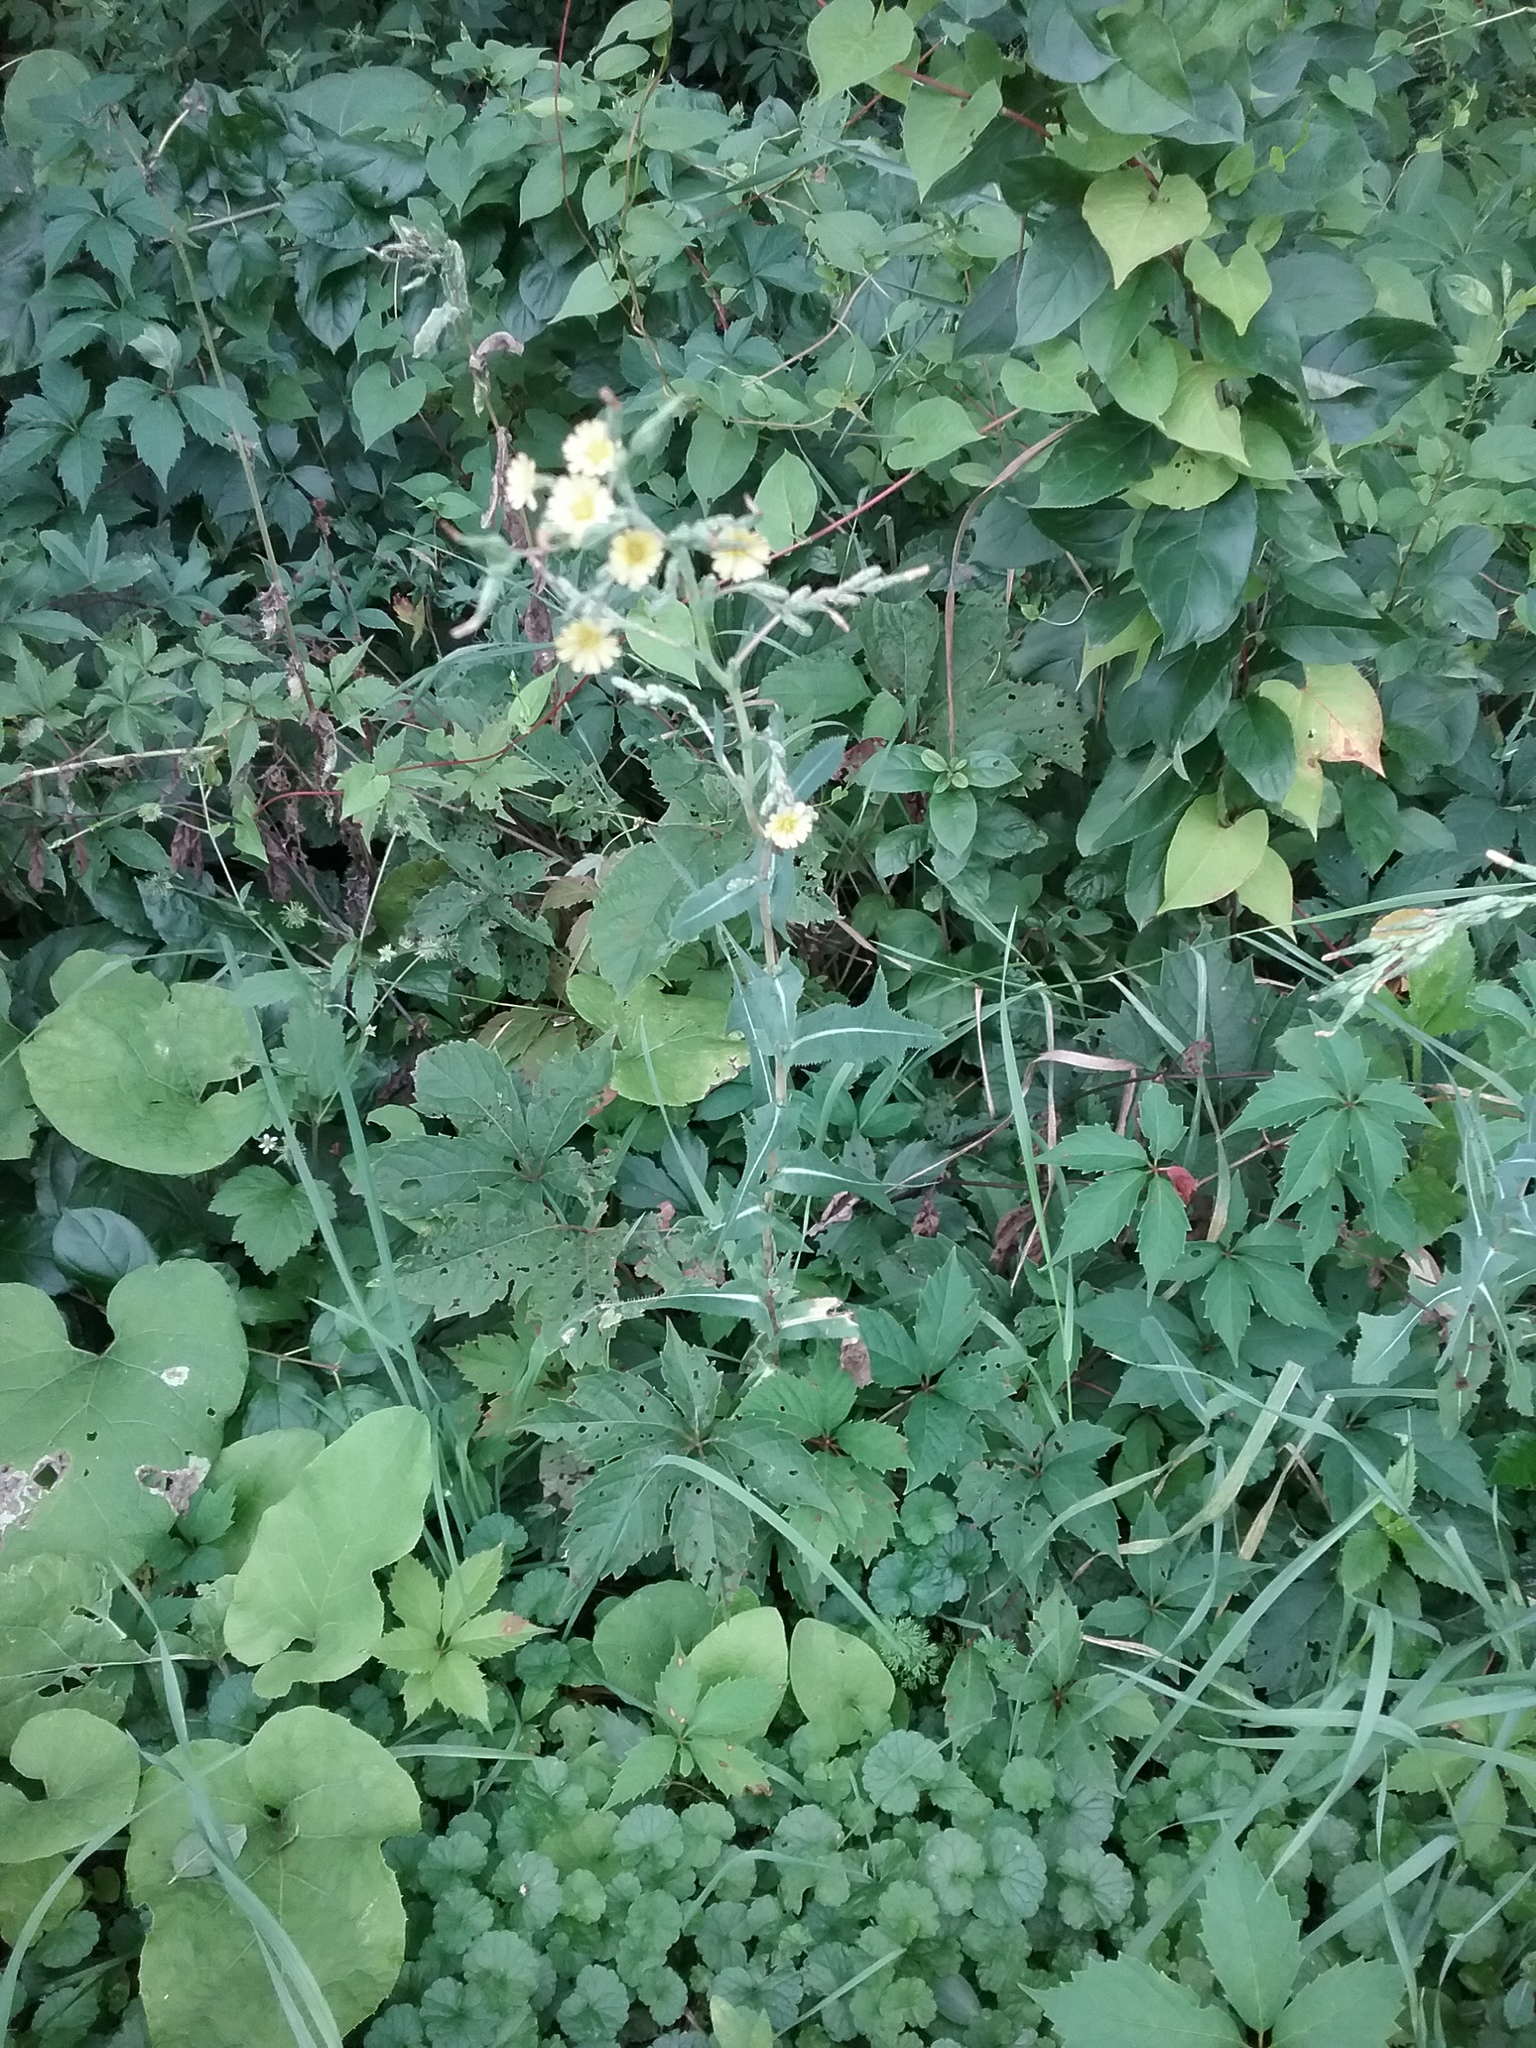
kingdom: Plantae
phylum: Tracheophyta
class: Magnoliopsida
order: Asterales
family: Asteraceae
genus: Lactuca
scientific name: Lactuca serriola
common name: Prickly lettuce
